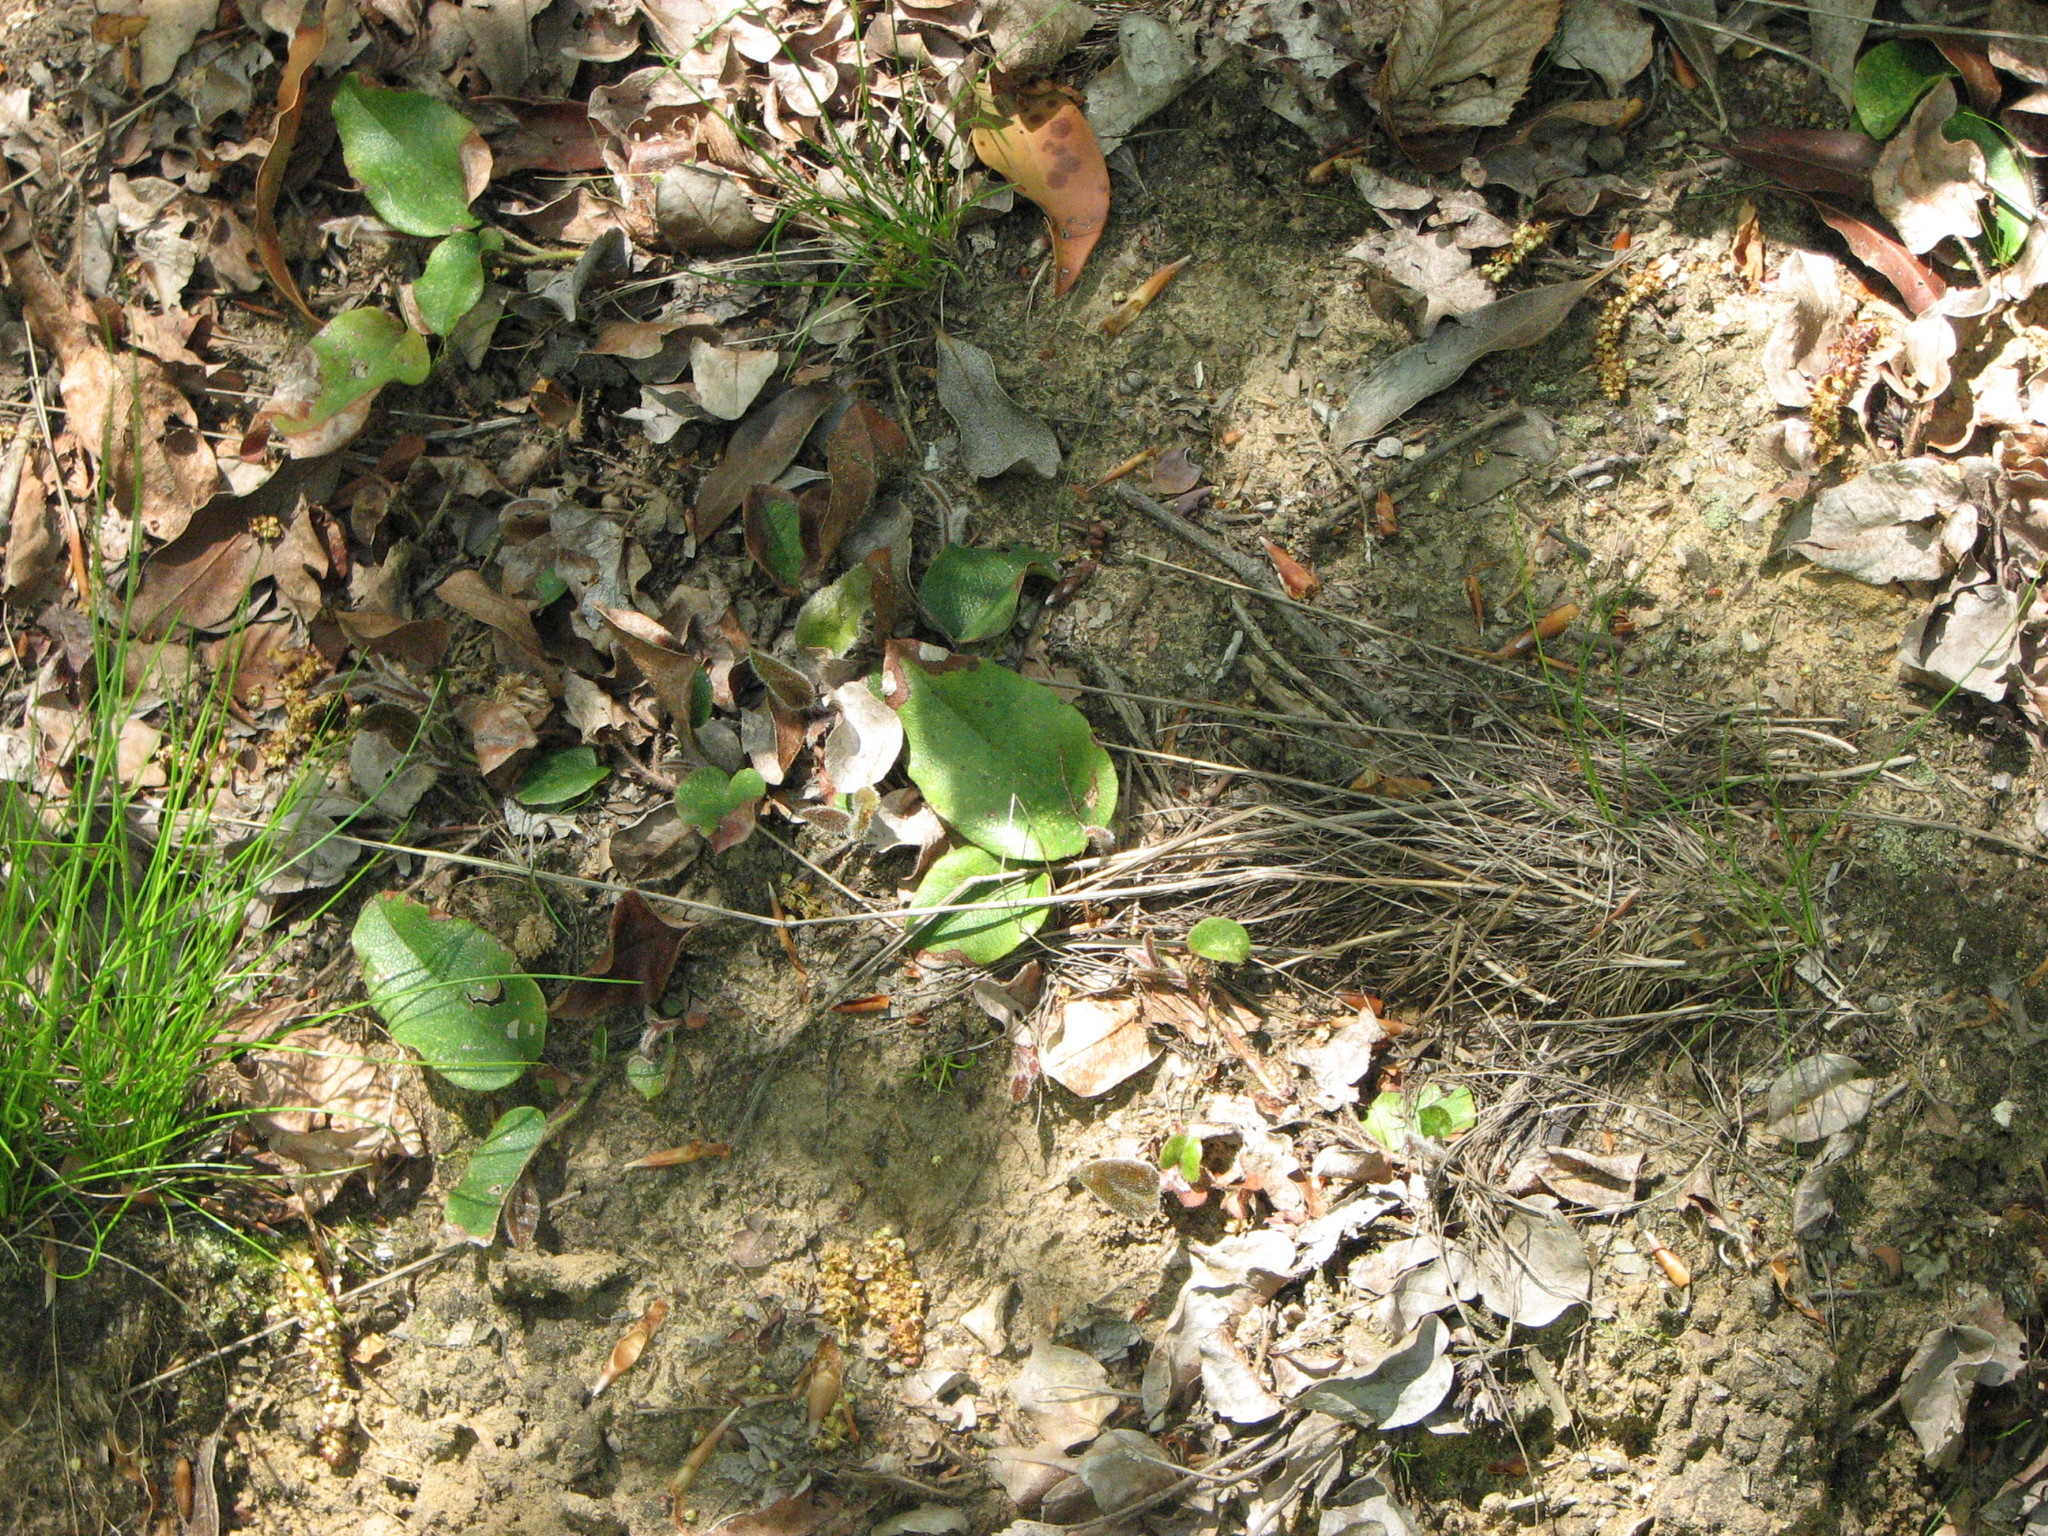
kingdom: Plantae
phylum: Tracheophyta
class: Magnoliopsida
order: Ericales
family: Ericaceae
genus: Epigaea
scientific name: Epigaea repens
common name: Gravelroot
